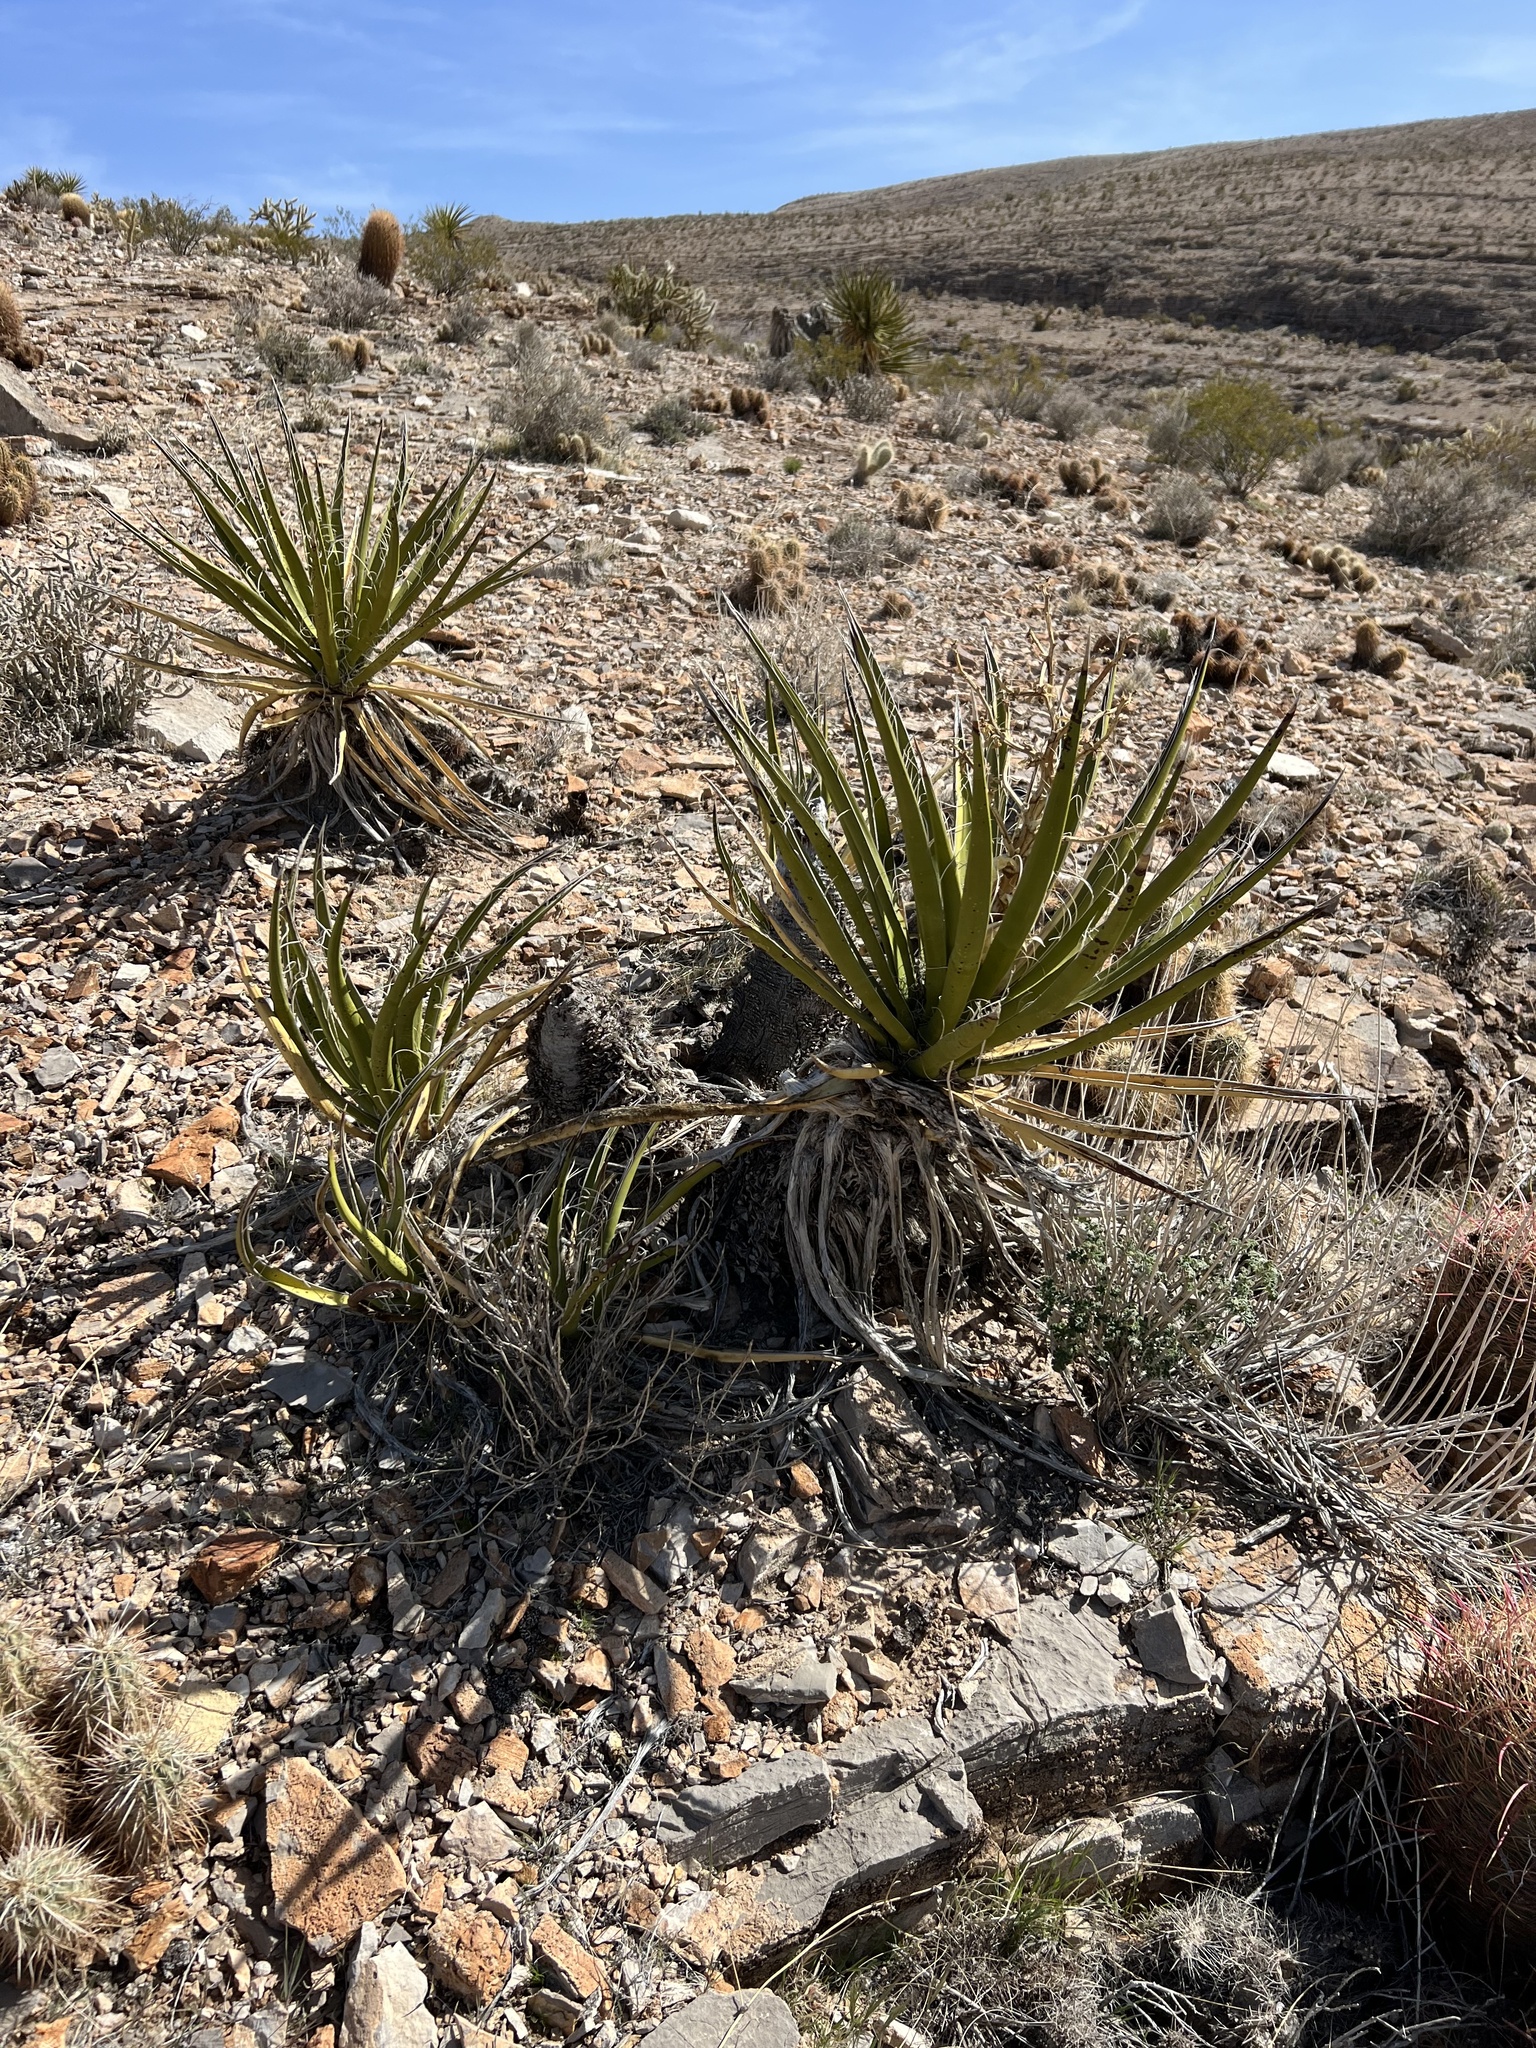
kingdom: Plantae
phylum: Tracheophyta
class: Liliopsida
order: Asparagales
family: Asparagaceae
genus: Yucca
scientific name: Yucca schidigera
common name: Mojave yucca
